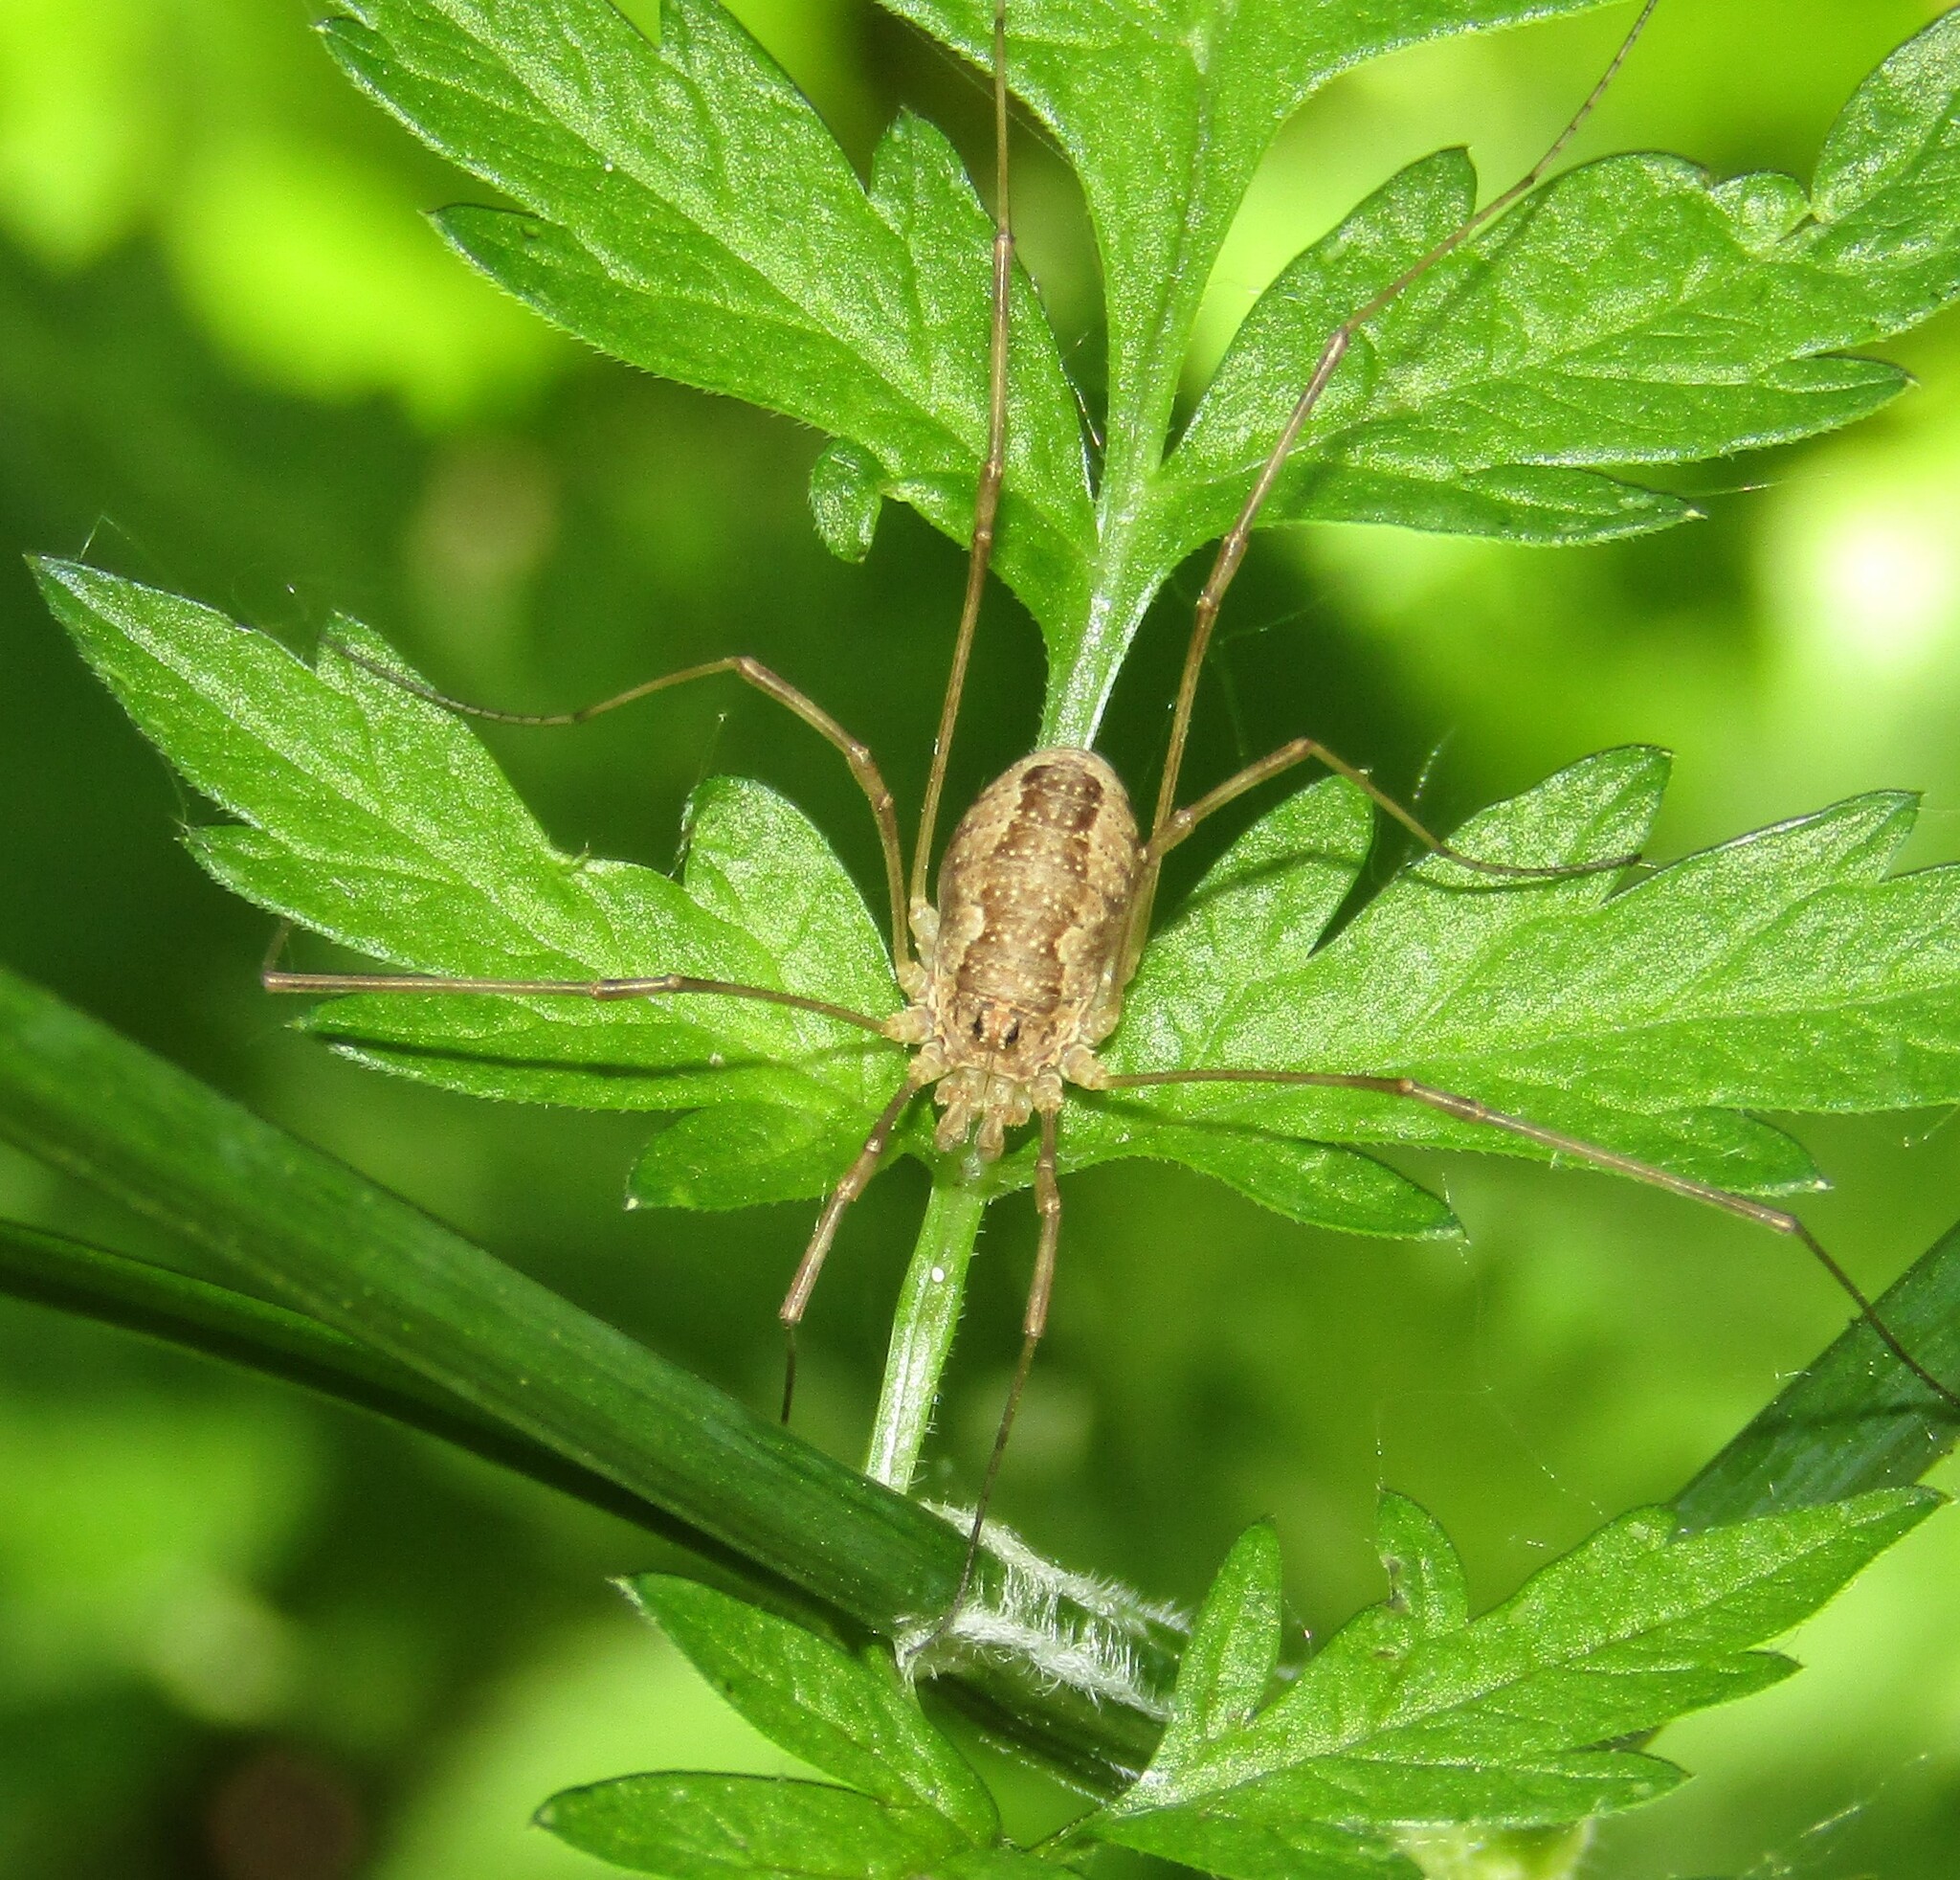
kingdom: Animalia
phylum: Arthropoda
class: Arachnida
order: Opiliones
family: Phalangiidae
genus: Rilaena
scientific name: Rilaena triangularis
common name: Spring harvestman
